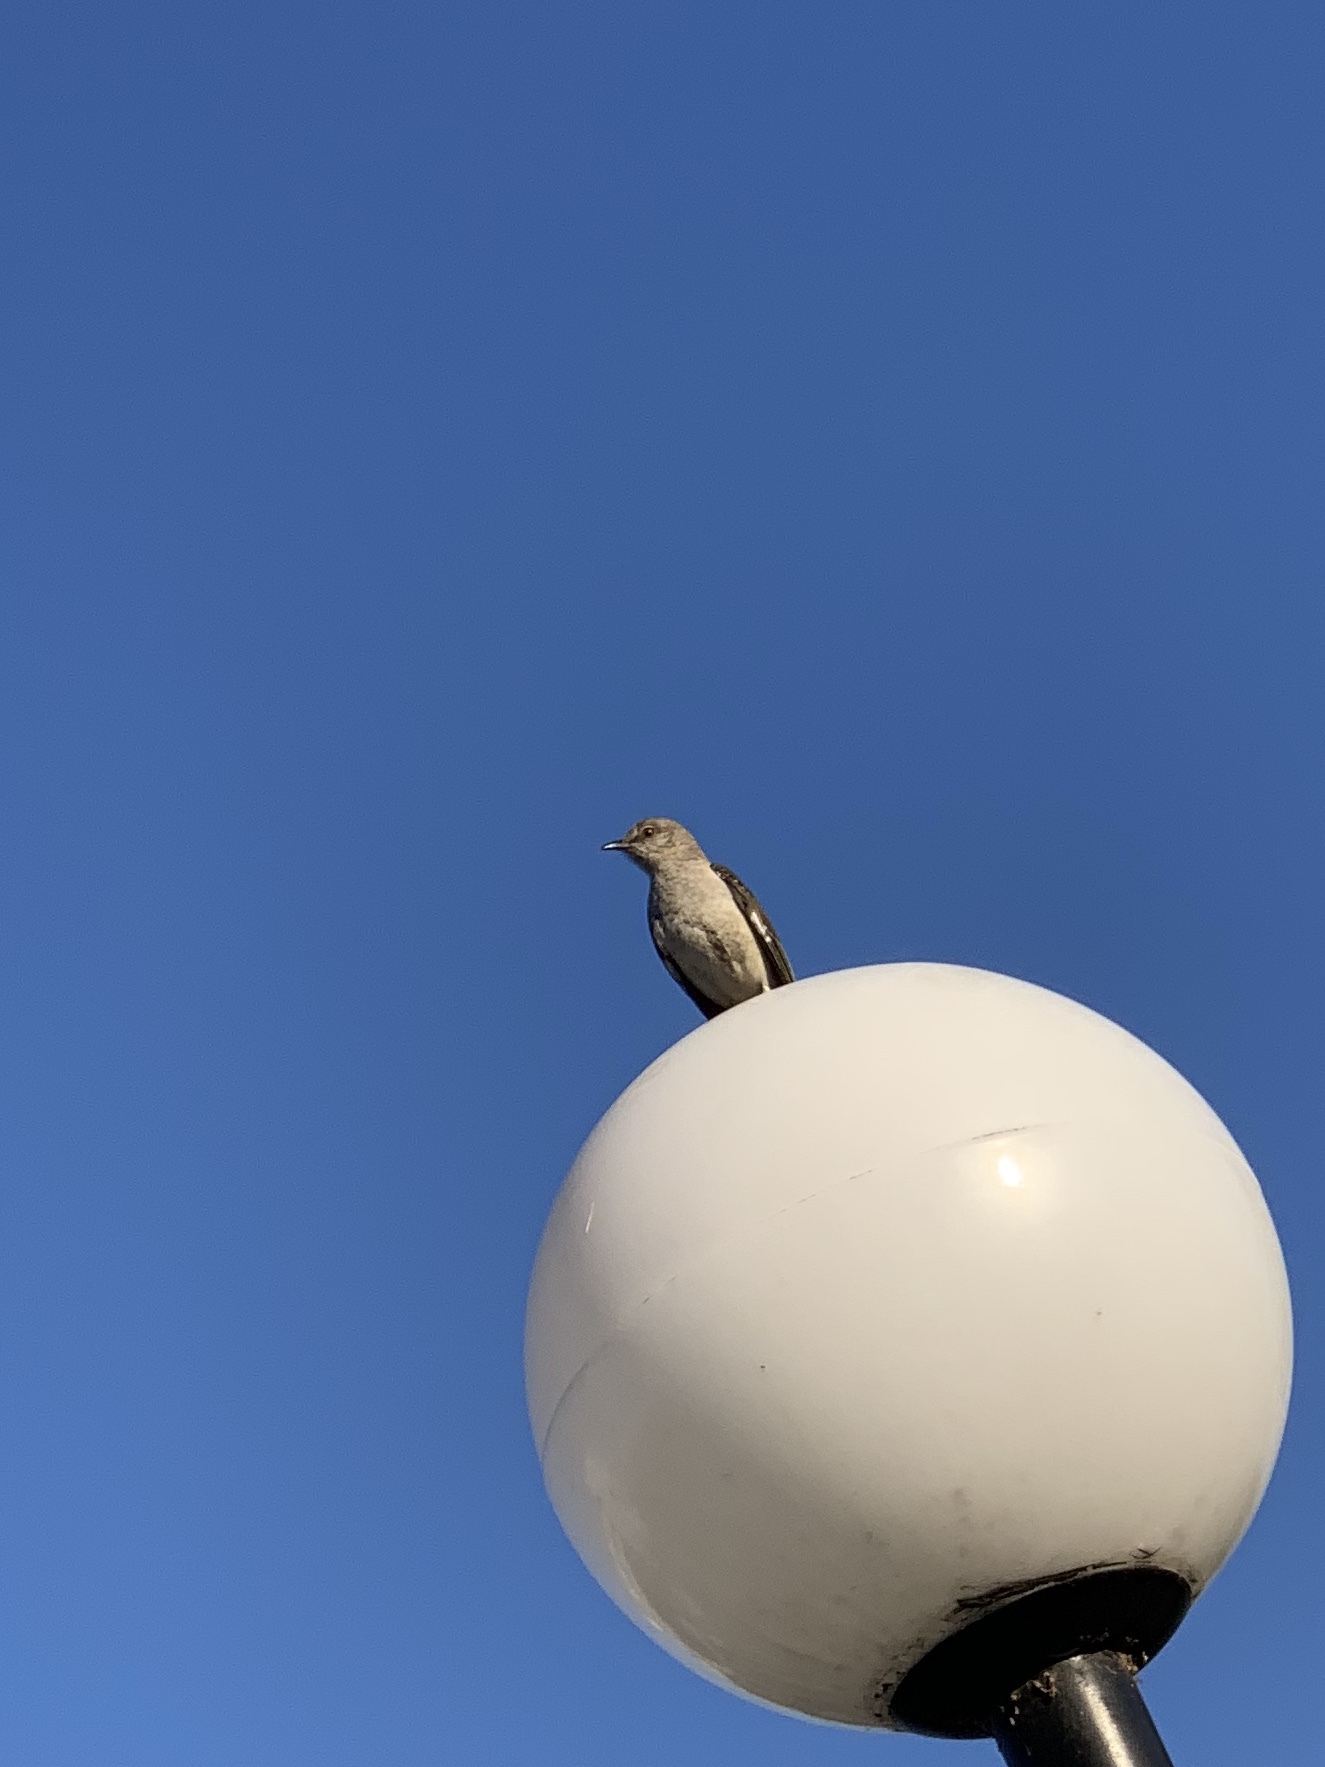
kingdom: Animalia
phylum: Chordata
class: Aves
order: Passeriformes
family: Mimidae
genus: Mimus
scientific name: Mimus polyglottos
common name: Northern mockingbird
